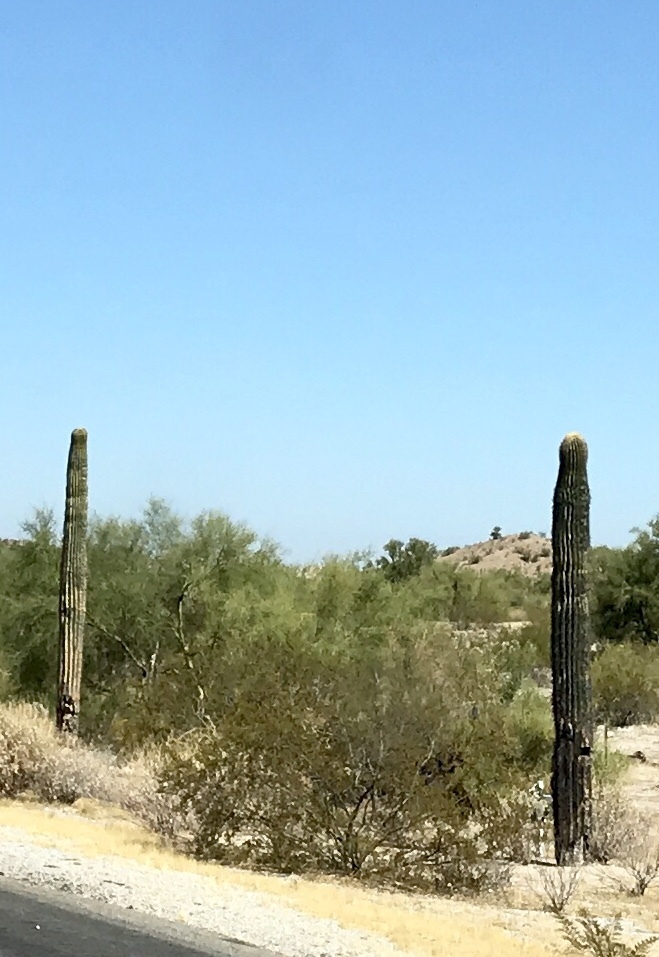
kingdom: Plantae
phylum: Tracheophyta
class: Magnoliopsida
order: Caryophyllales
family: Cactaceae
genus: Carnegiea
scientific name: Carnegiea gigantea
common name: Saguaro
